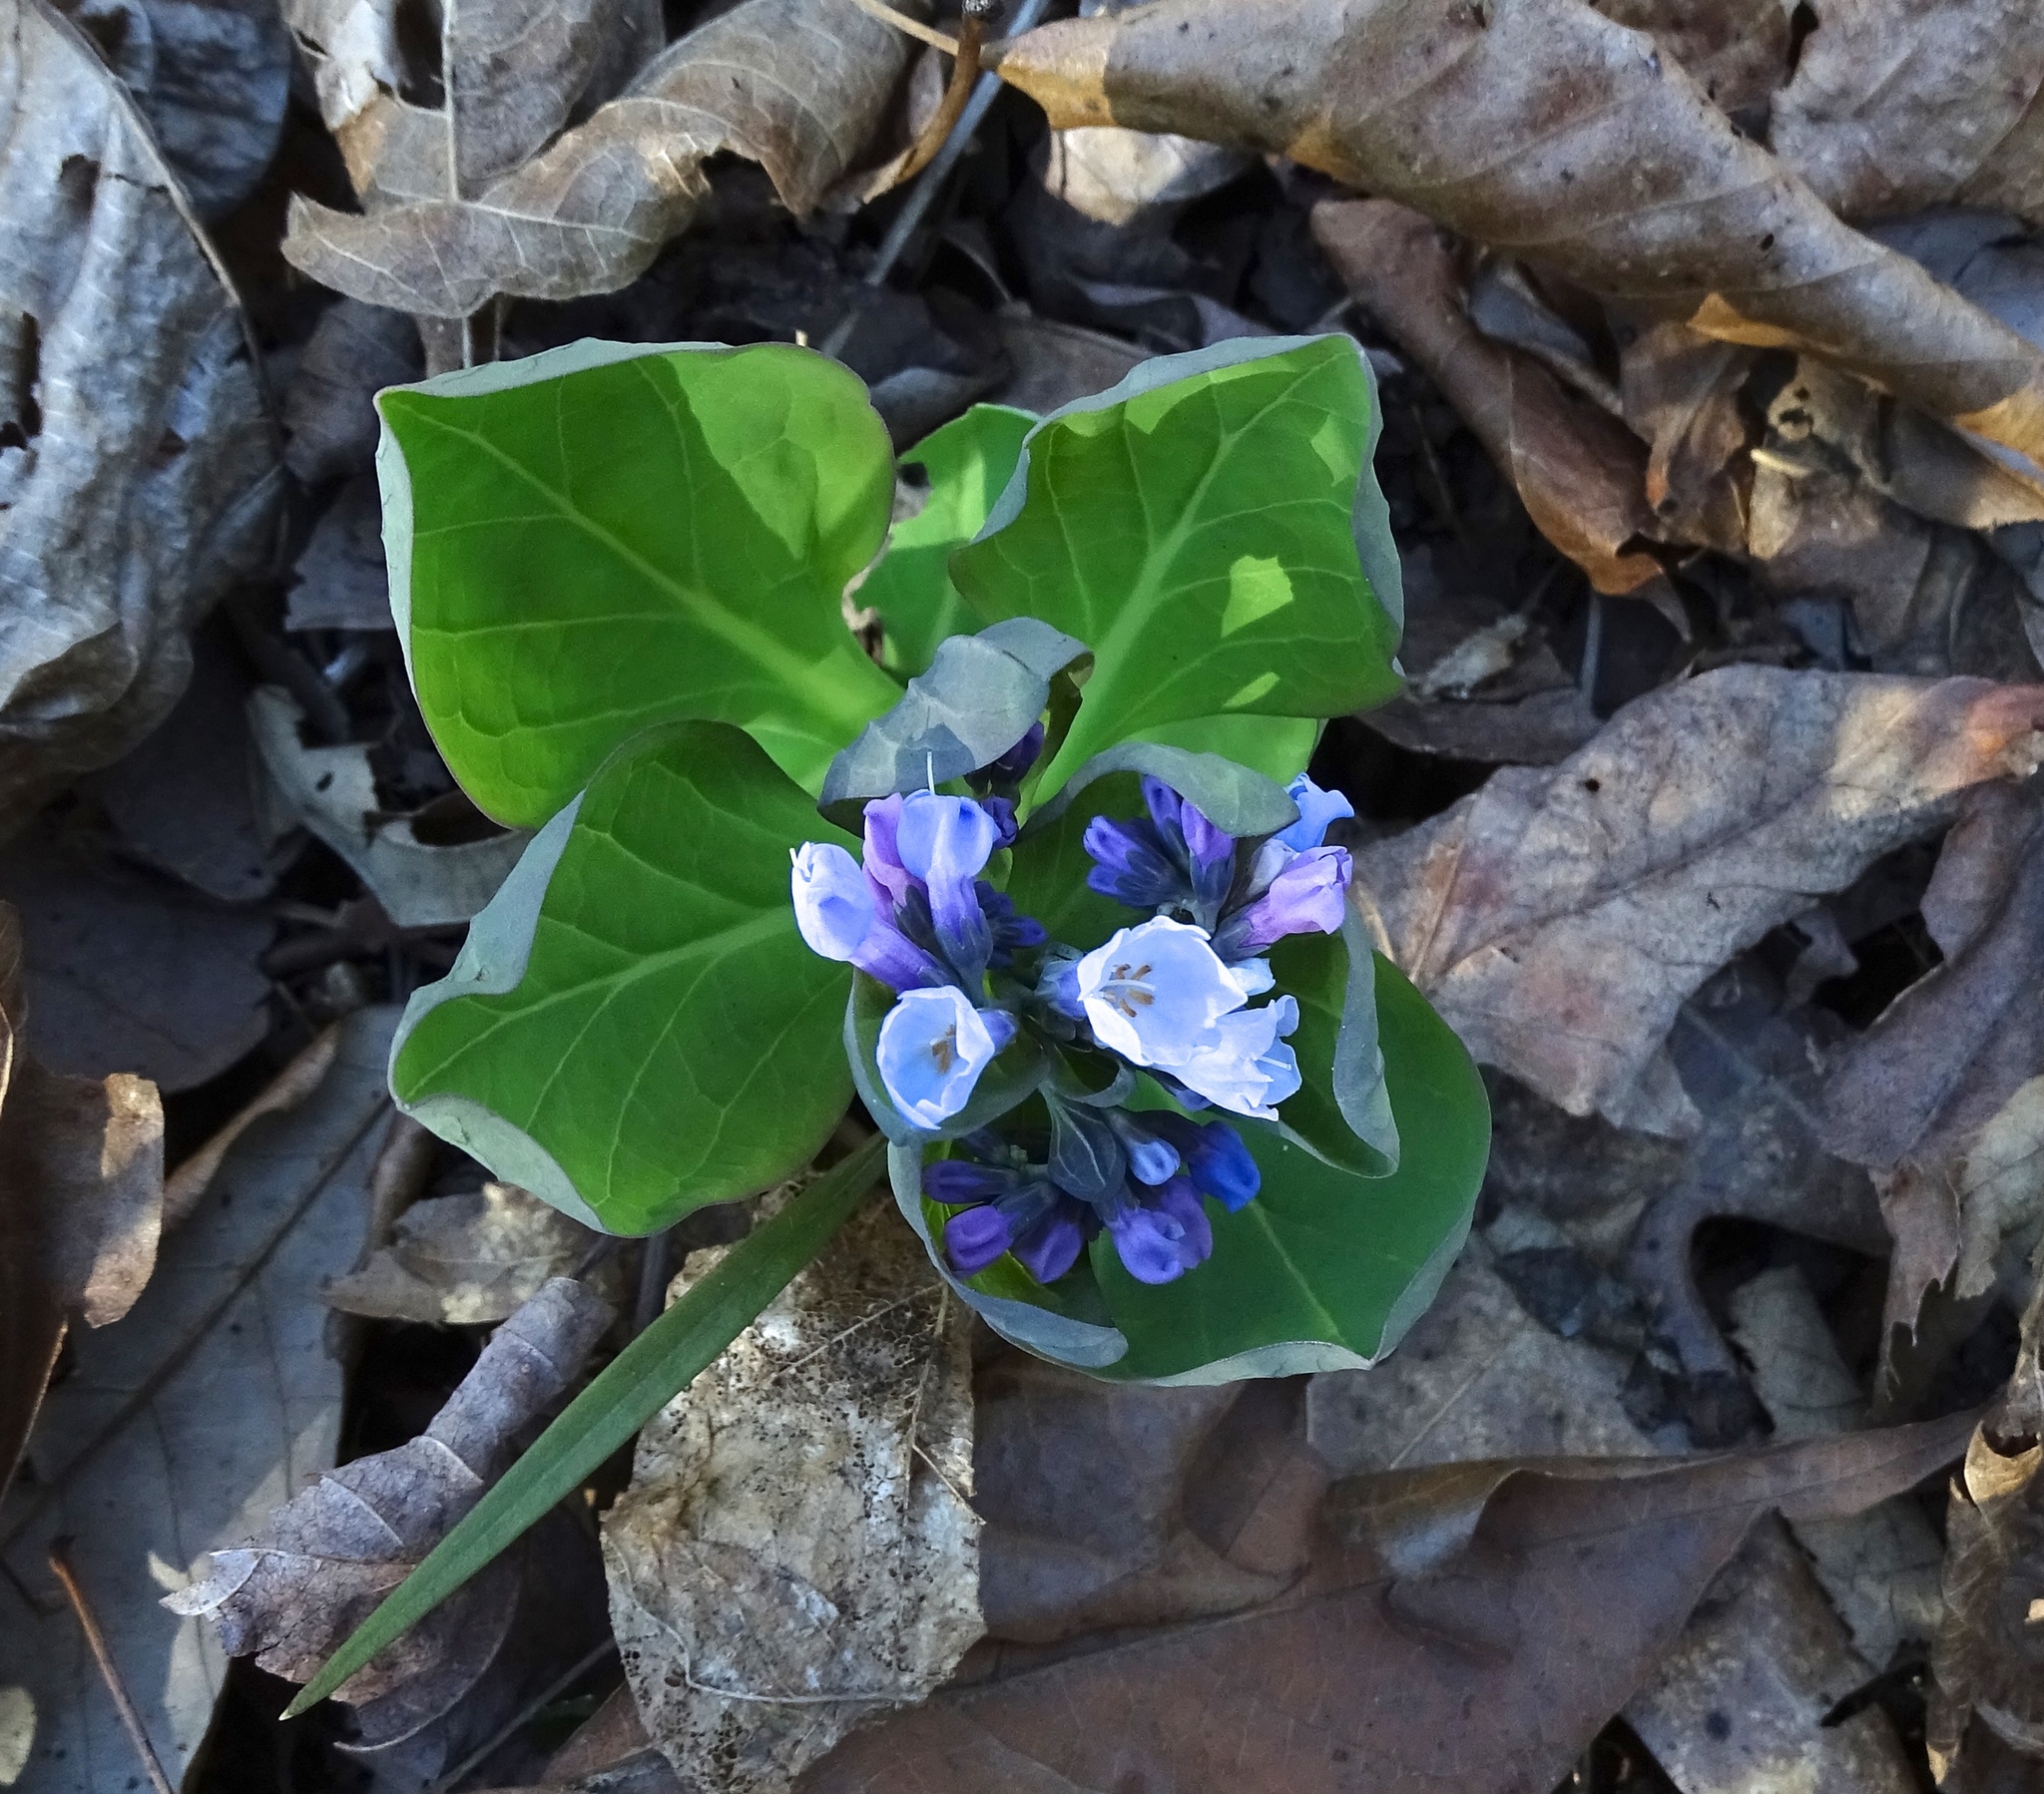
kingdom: Plantae
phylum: Tracheophyta
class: Magnoliopsida
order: Boraginales
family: Boraginaceae
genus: Mertensia
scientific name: Mertensia virginica
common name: Virginia bluebells
